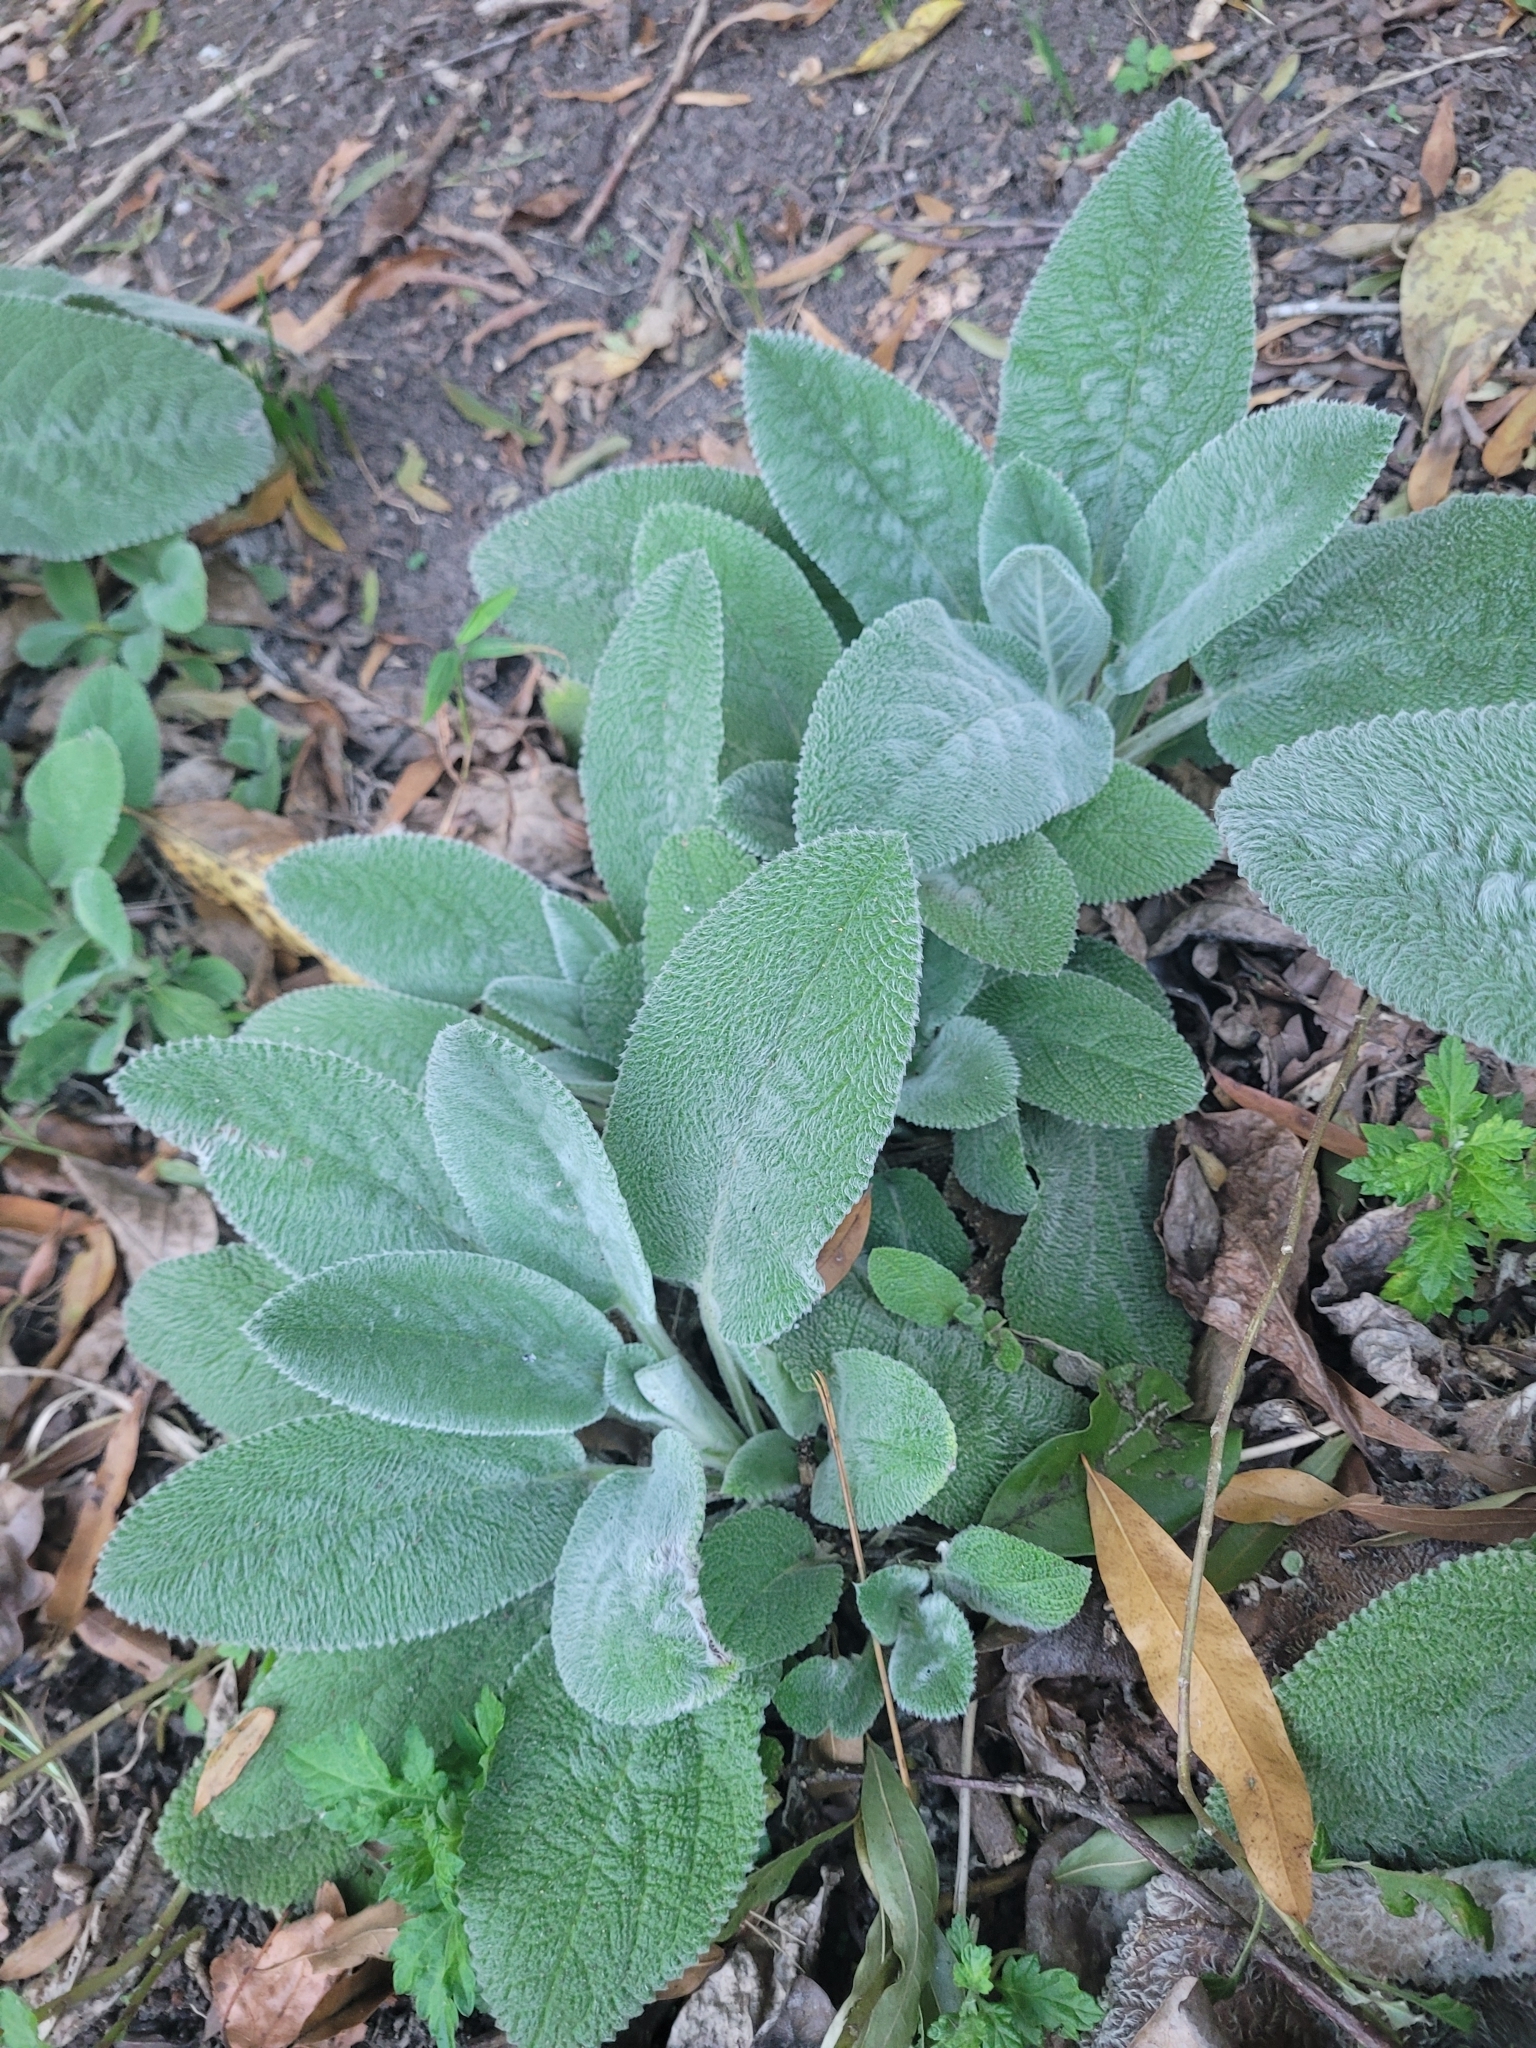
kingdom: Plantae
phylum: Tracheophyta
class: Magnoliopsida
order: Lamiales
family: Lamiaceae
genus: Stachys
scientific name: Stachys byzantina
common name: Lamb's-ear
